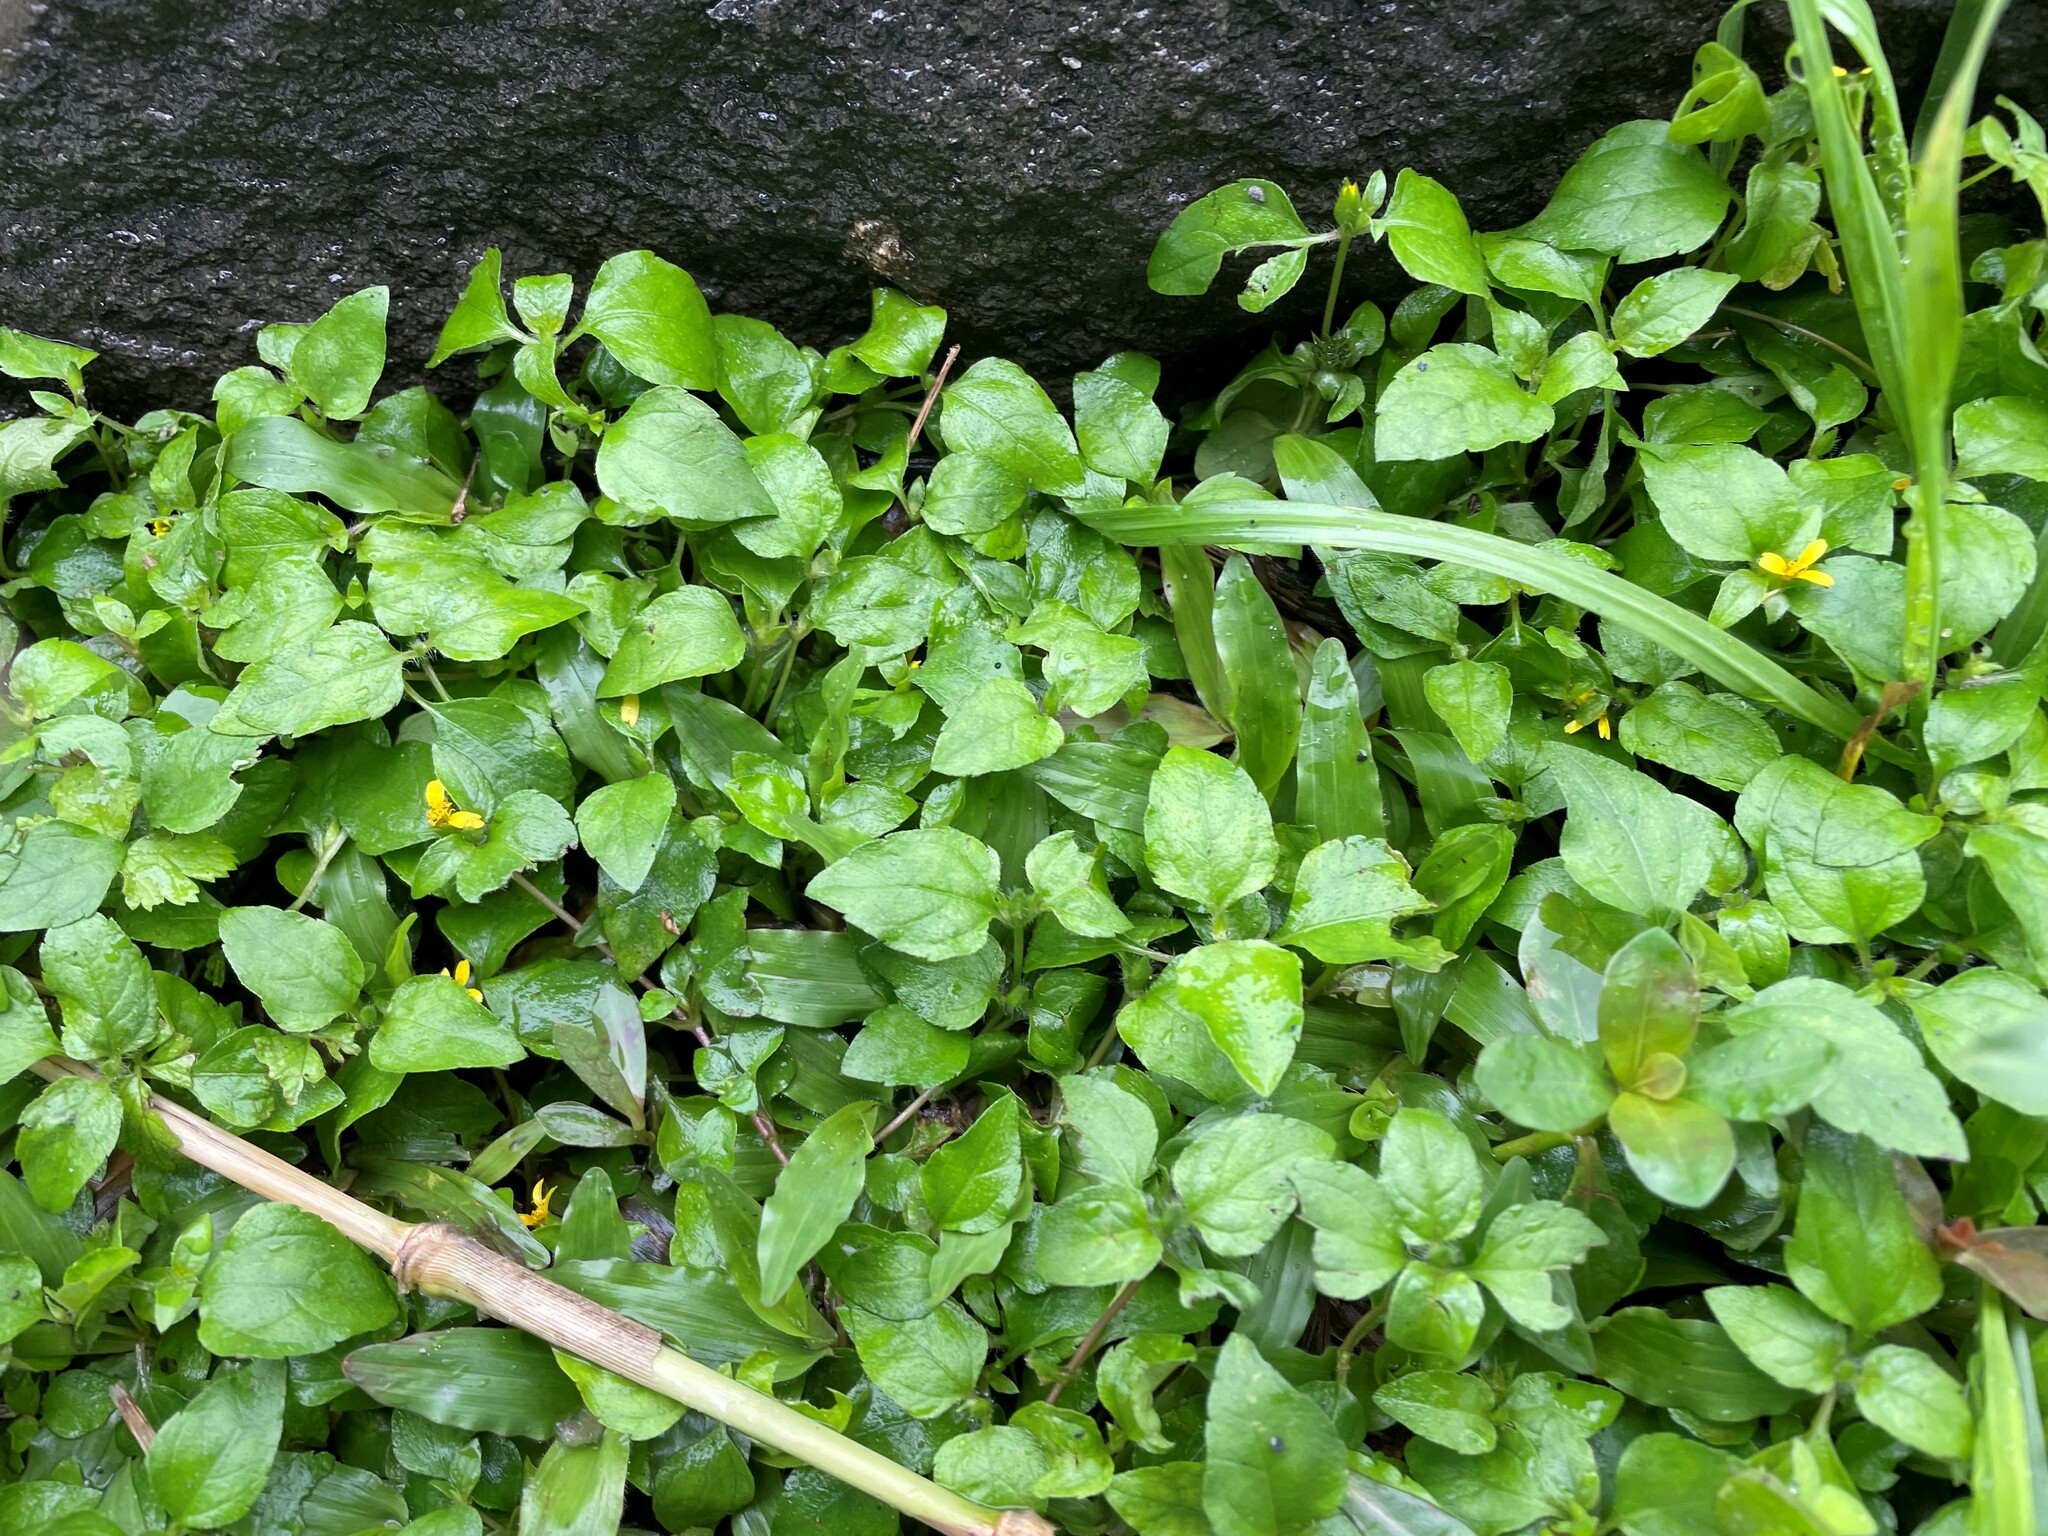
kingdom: Plantae
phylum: Tracheophyta
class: Magnoliopsida
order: Asterales
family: Asteraceae
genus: Calyptocarpus
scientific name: Calyptocarpus vialis
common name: Straggler daisy
